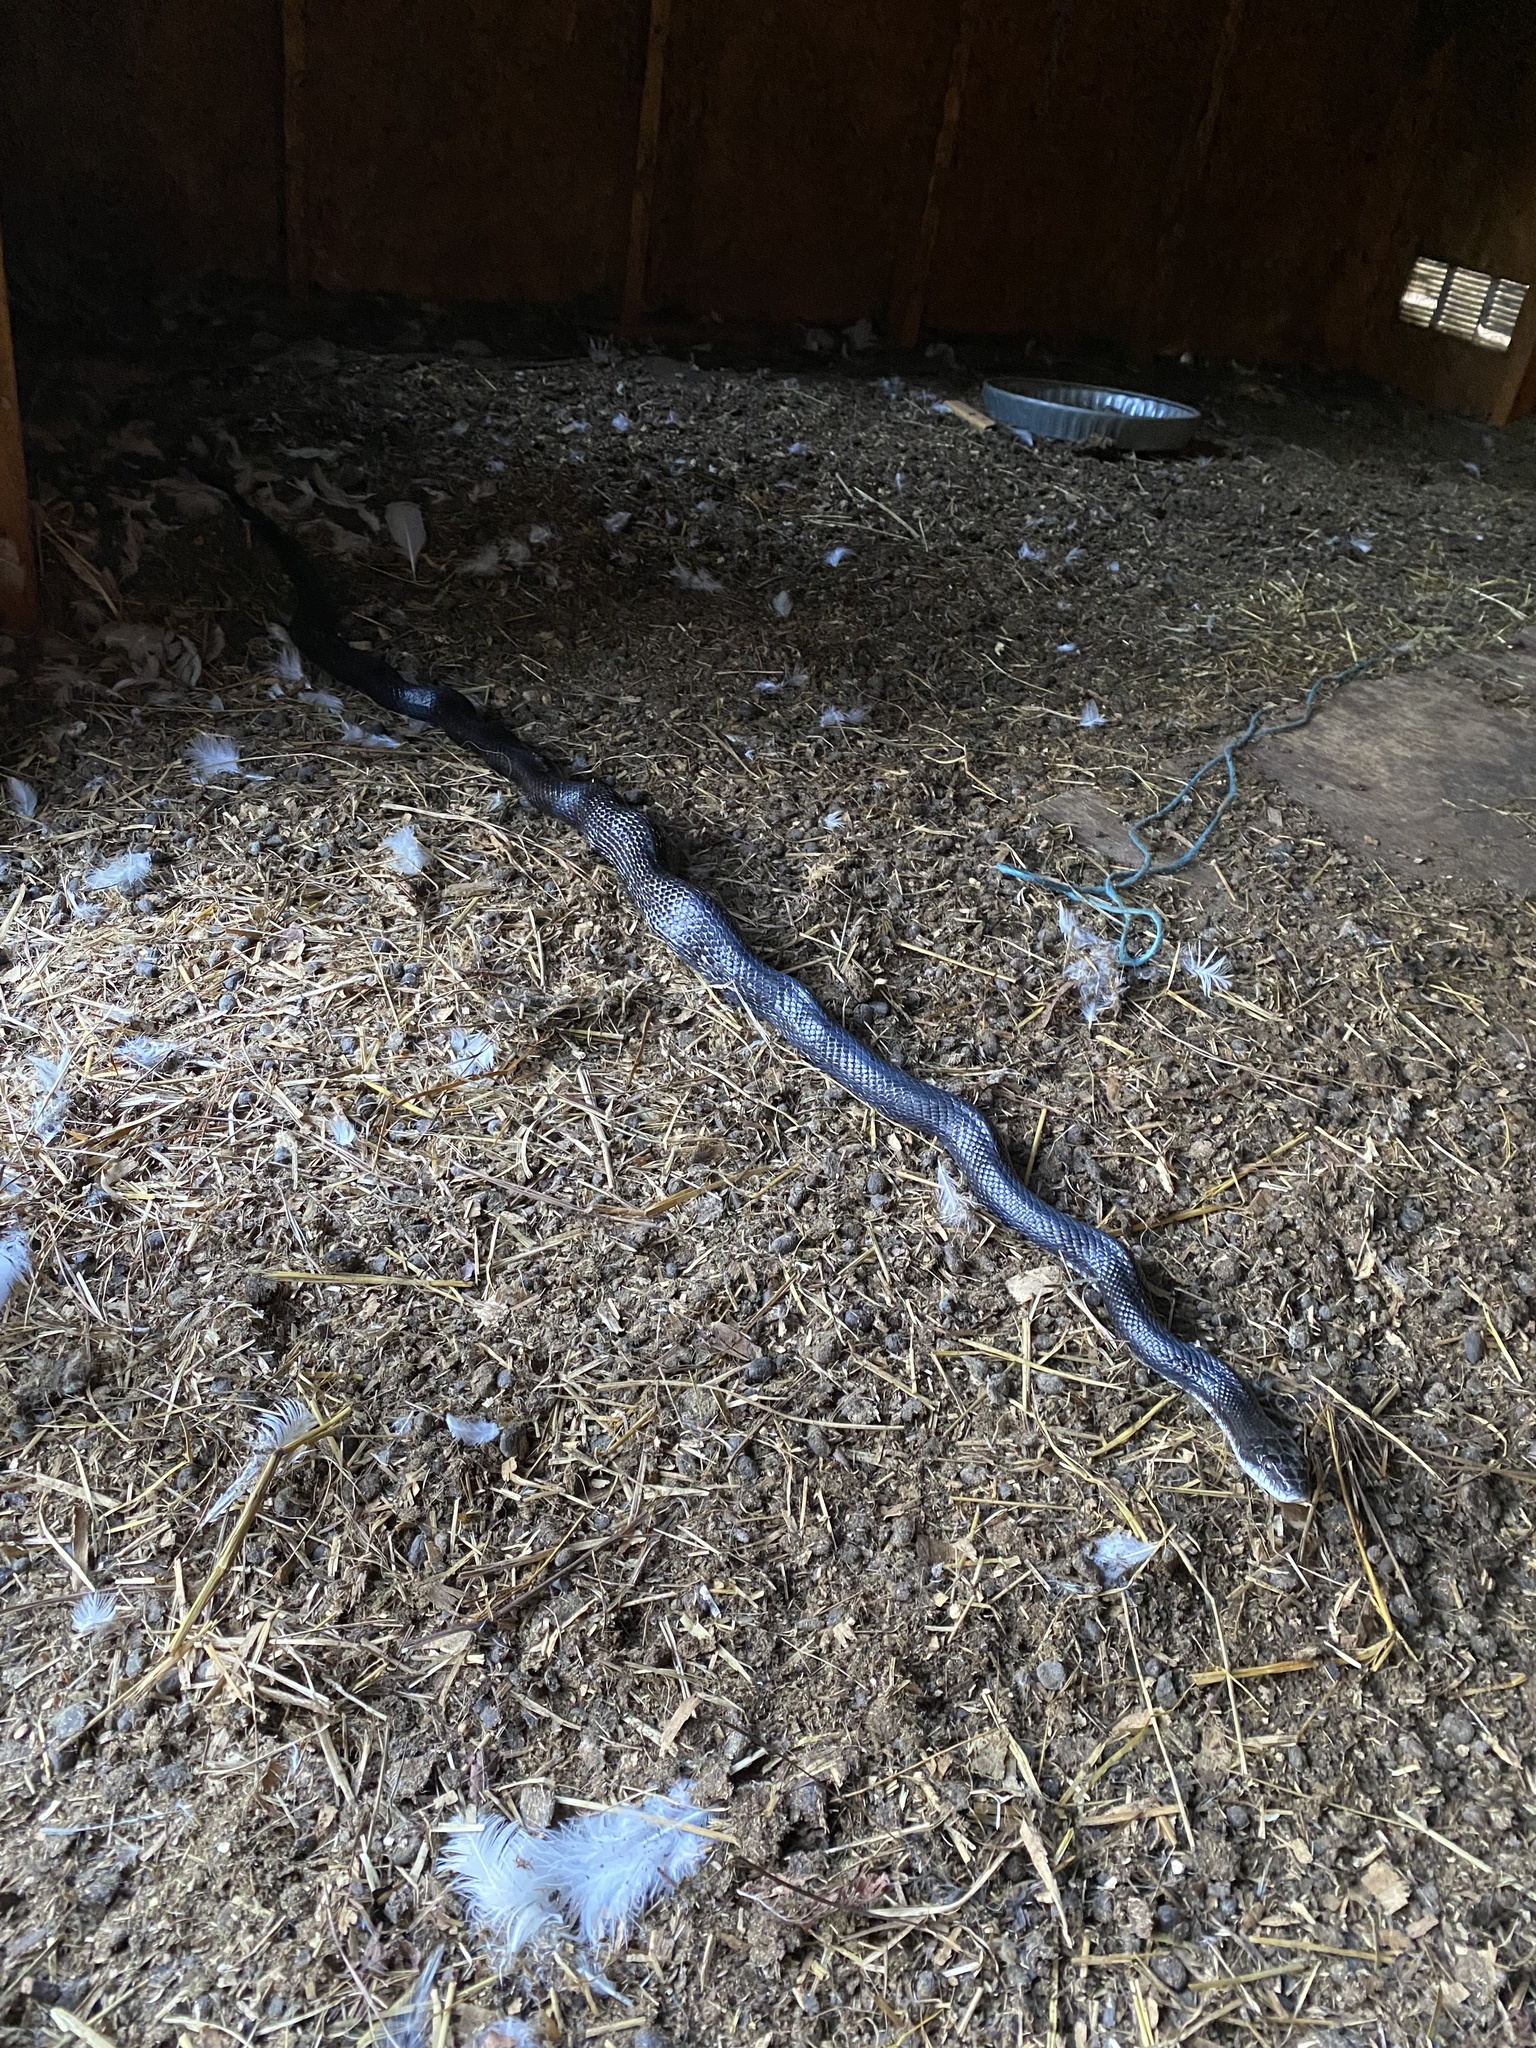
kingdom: Animalia
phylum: Chordata
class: Squamata
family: Colubridae
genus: Pantherophis
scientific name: Pantherophis alleghaniensis
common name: Eastern rat snake
